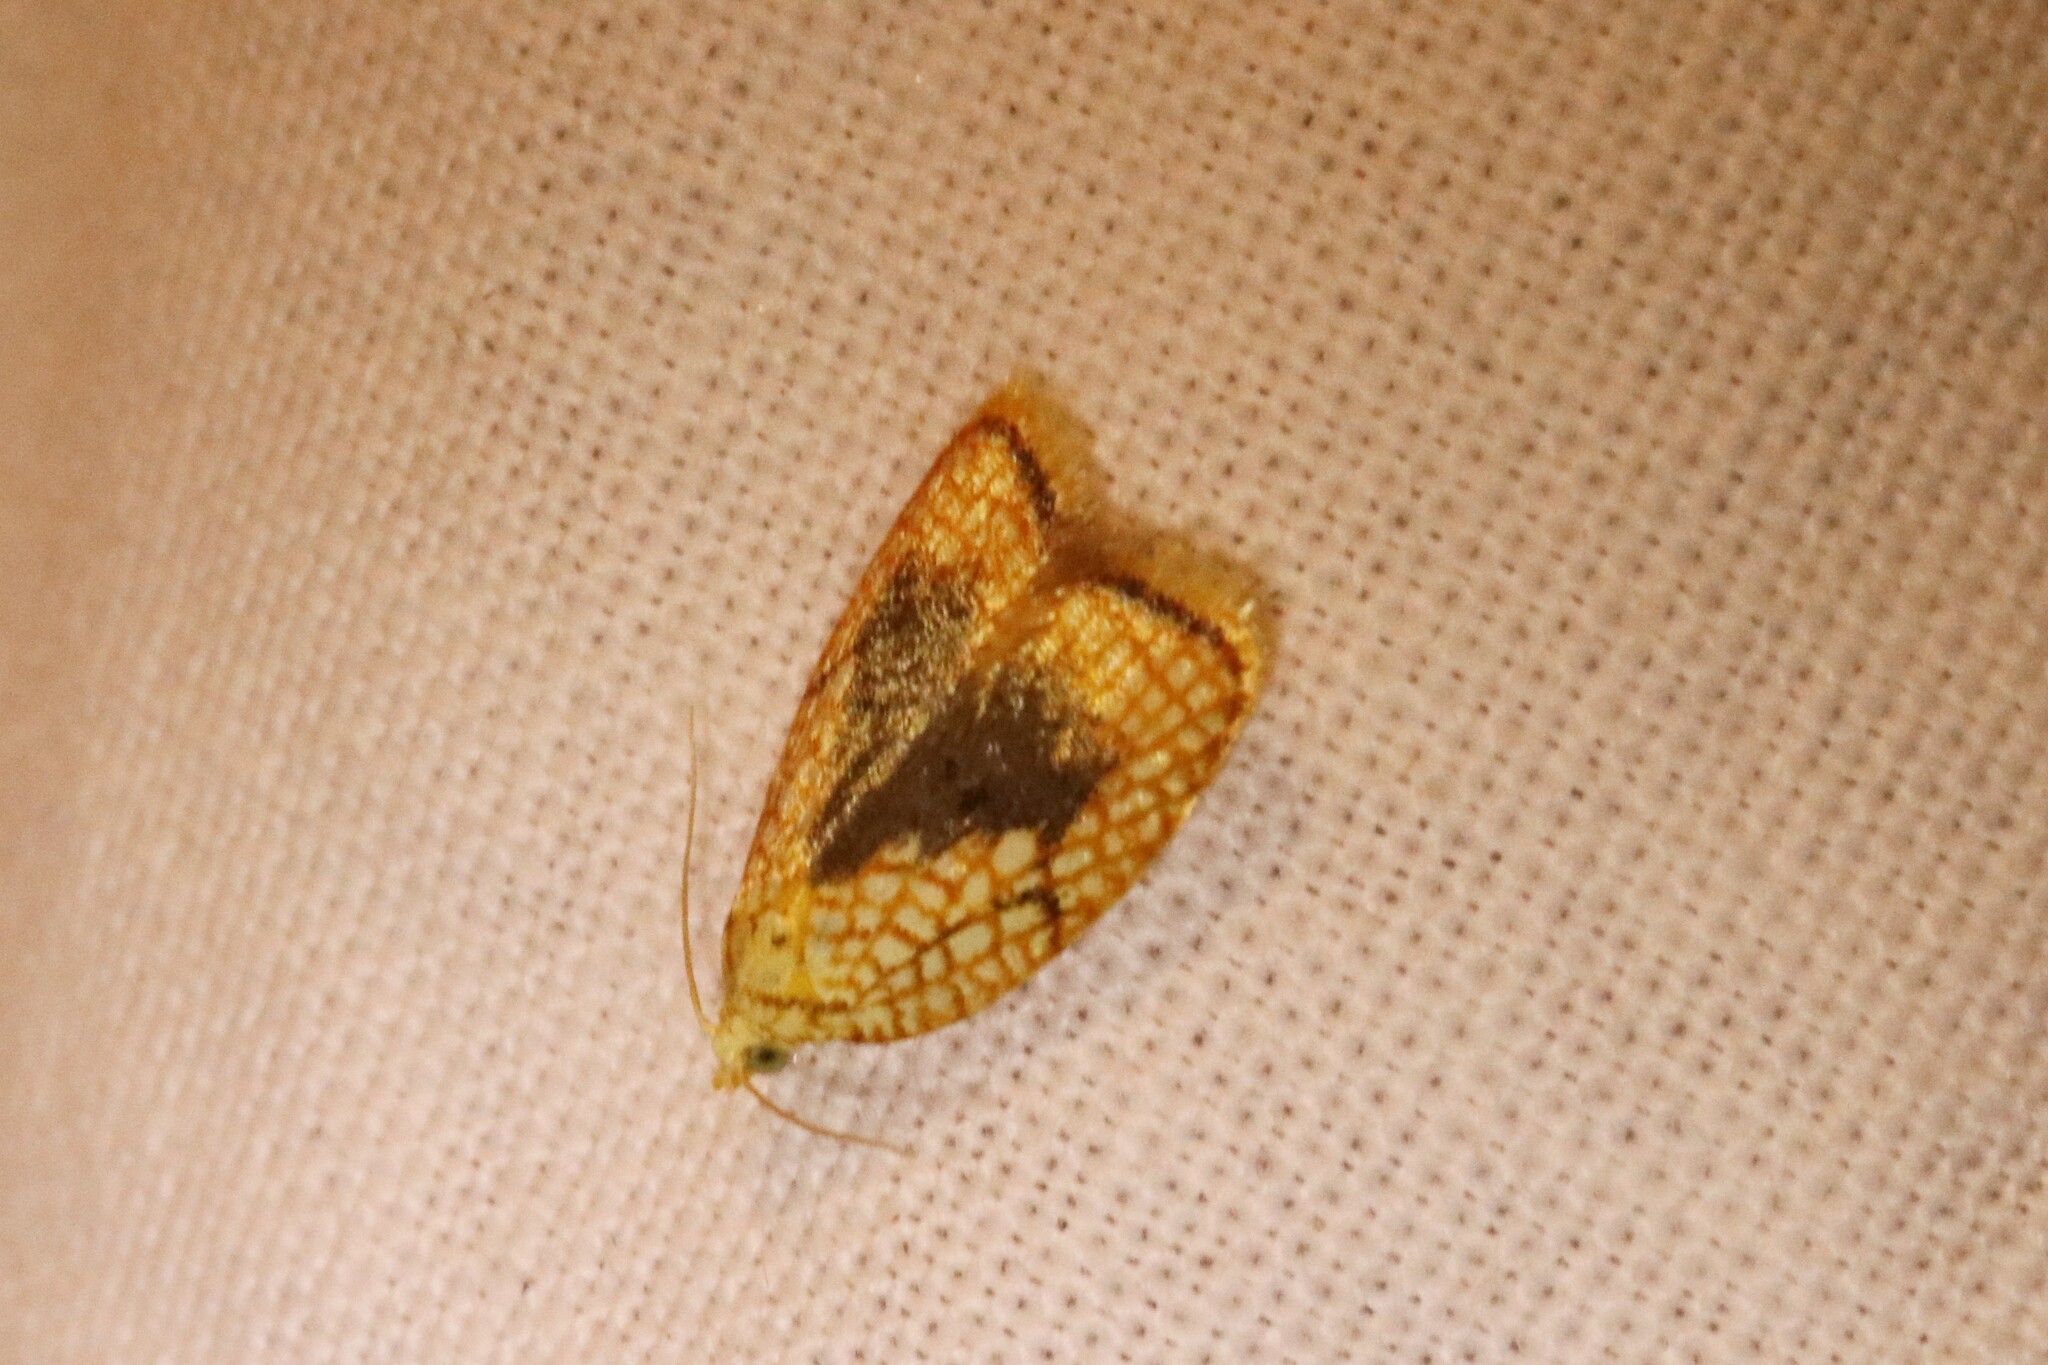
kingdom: Animalia
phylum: Arthropoda
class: Insecta
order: Lepidoptera
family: Tortricidae
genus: Acleris
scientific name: Acleris forsskaleana
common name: Maple button
